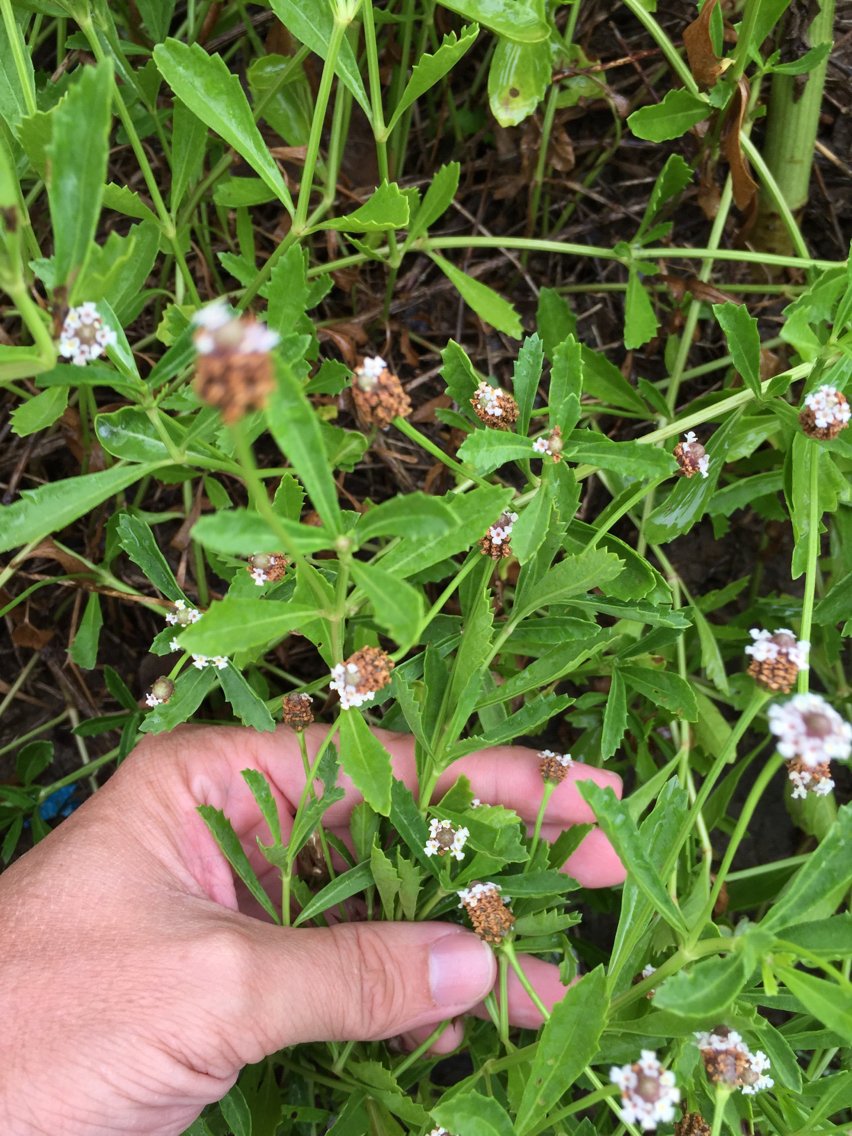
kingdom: Plantae
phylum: Tracheophyta
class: Magnoliopsida
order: Lamiales
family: Verbenaceae
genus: Phyla
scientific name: Phyla nodiflora
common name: Frogfruit
